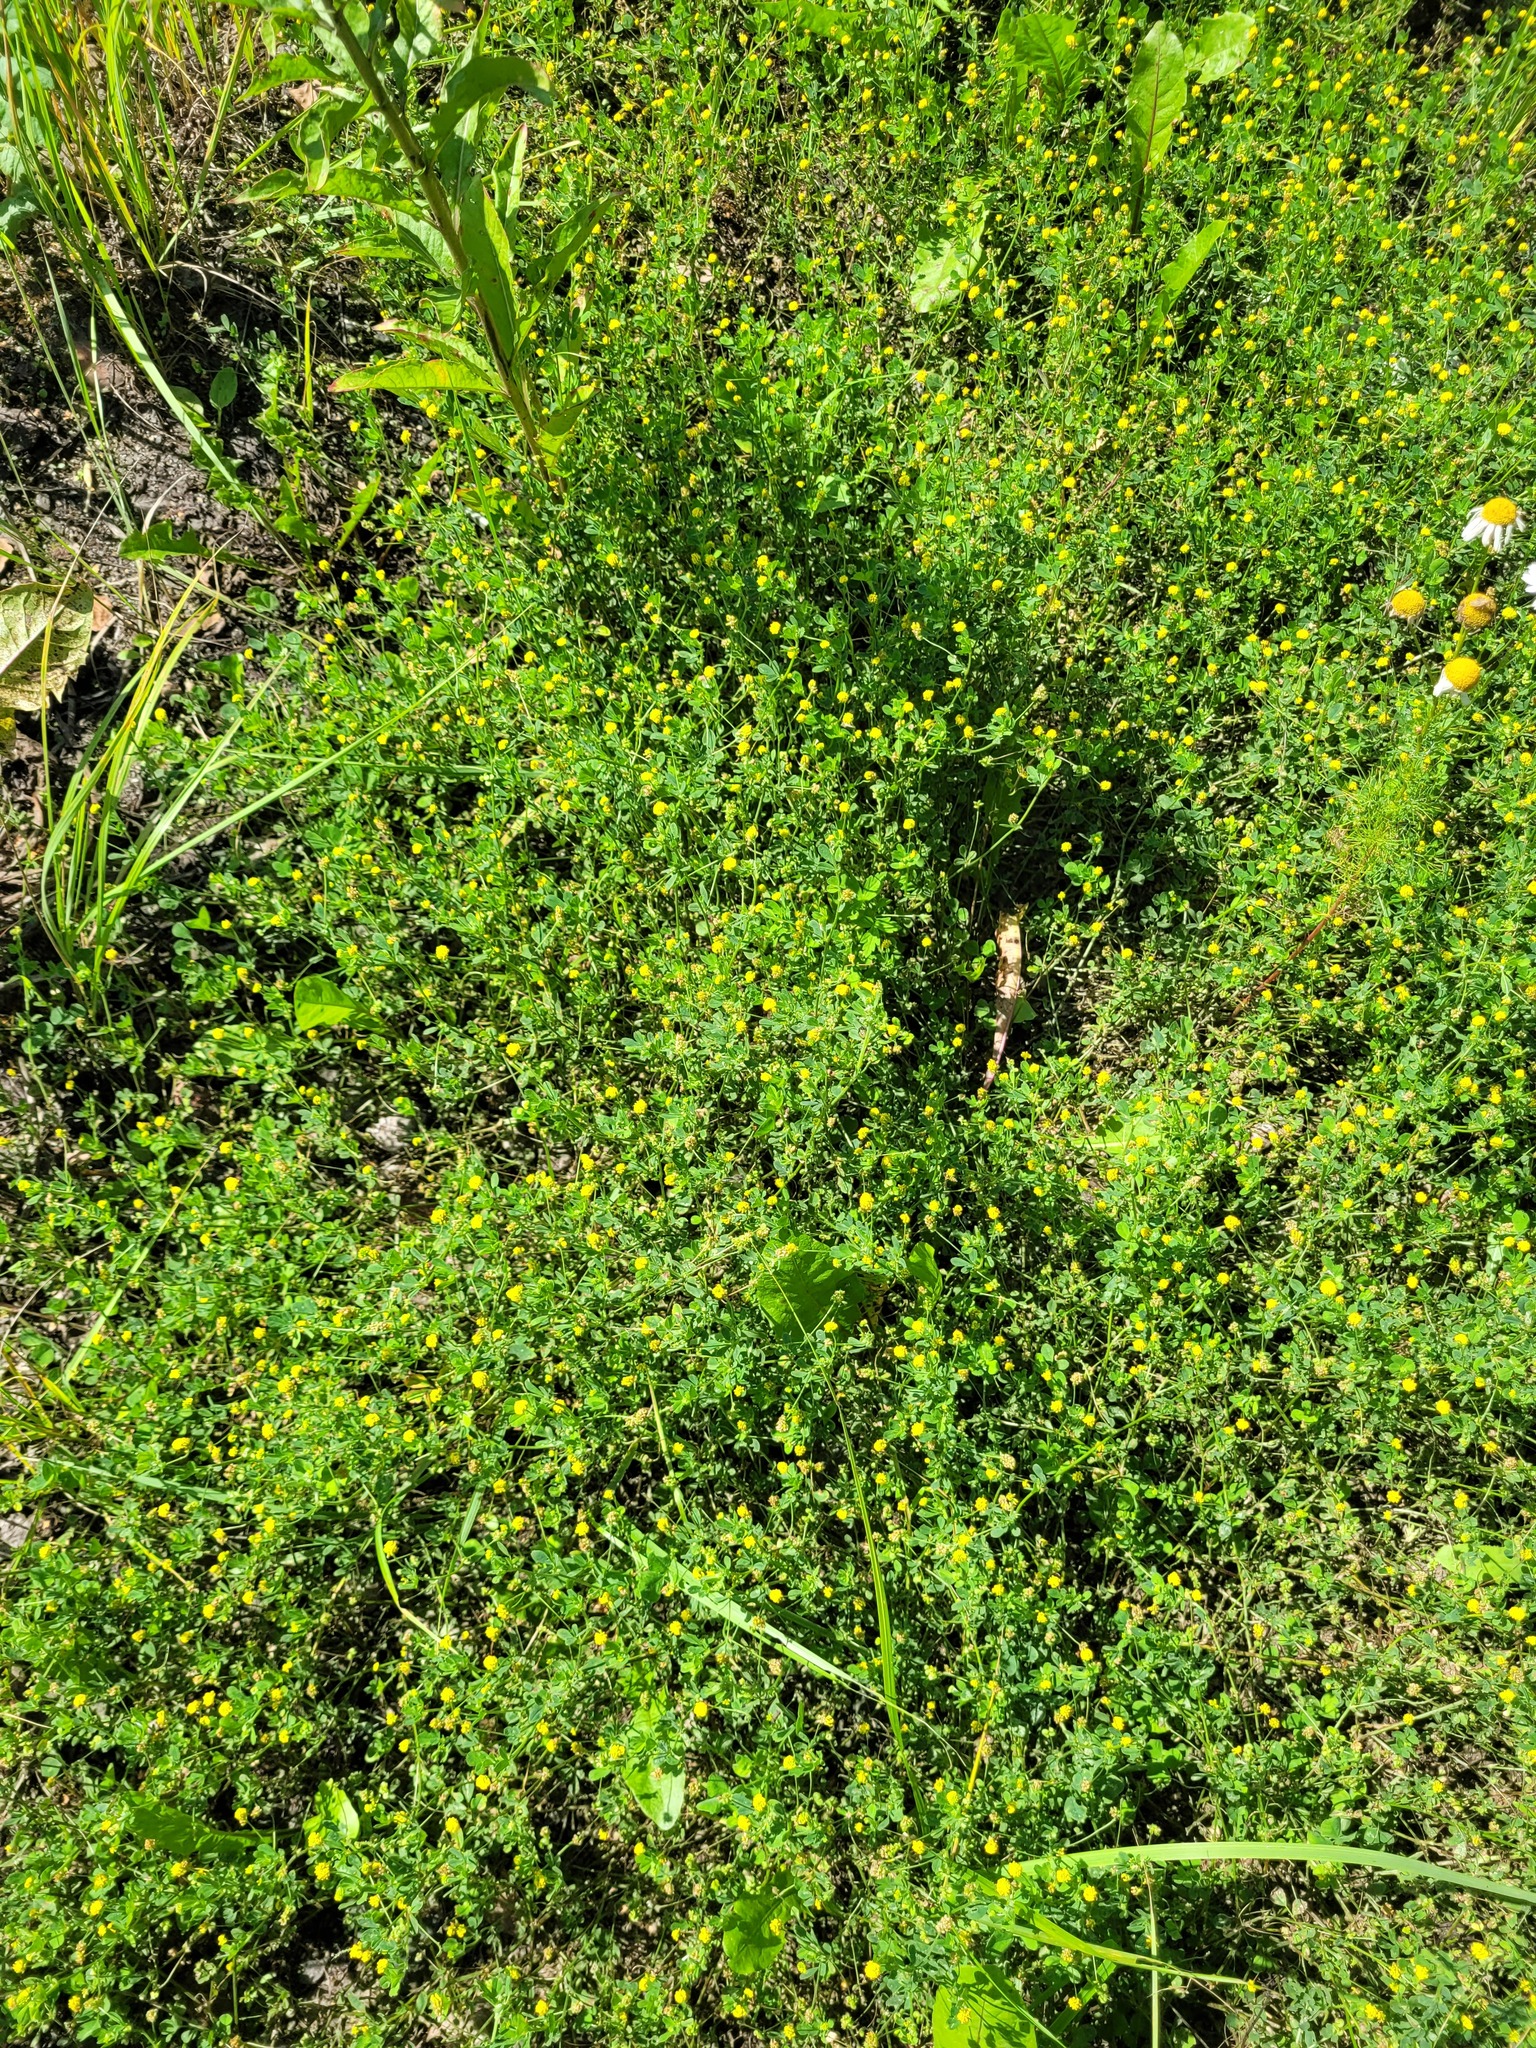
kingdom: Plantae
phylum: Tracheophyta
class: Magnoliopsida
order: Fabales
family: Fabaceae
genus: Medicago
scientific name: Medicago lupulina
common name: Black medick
